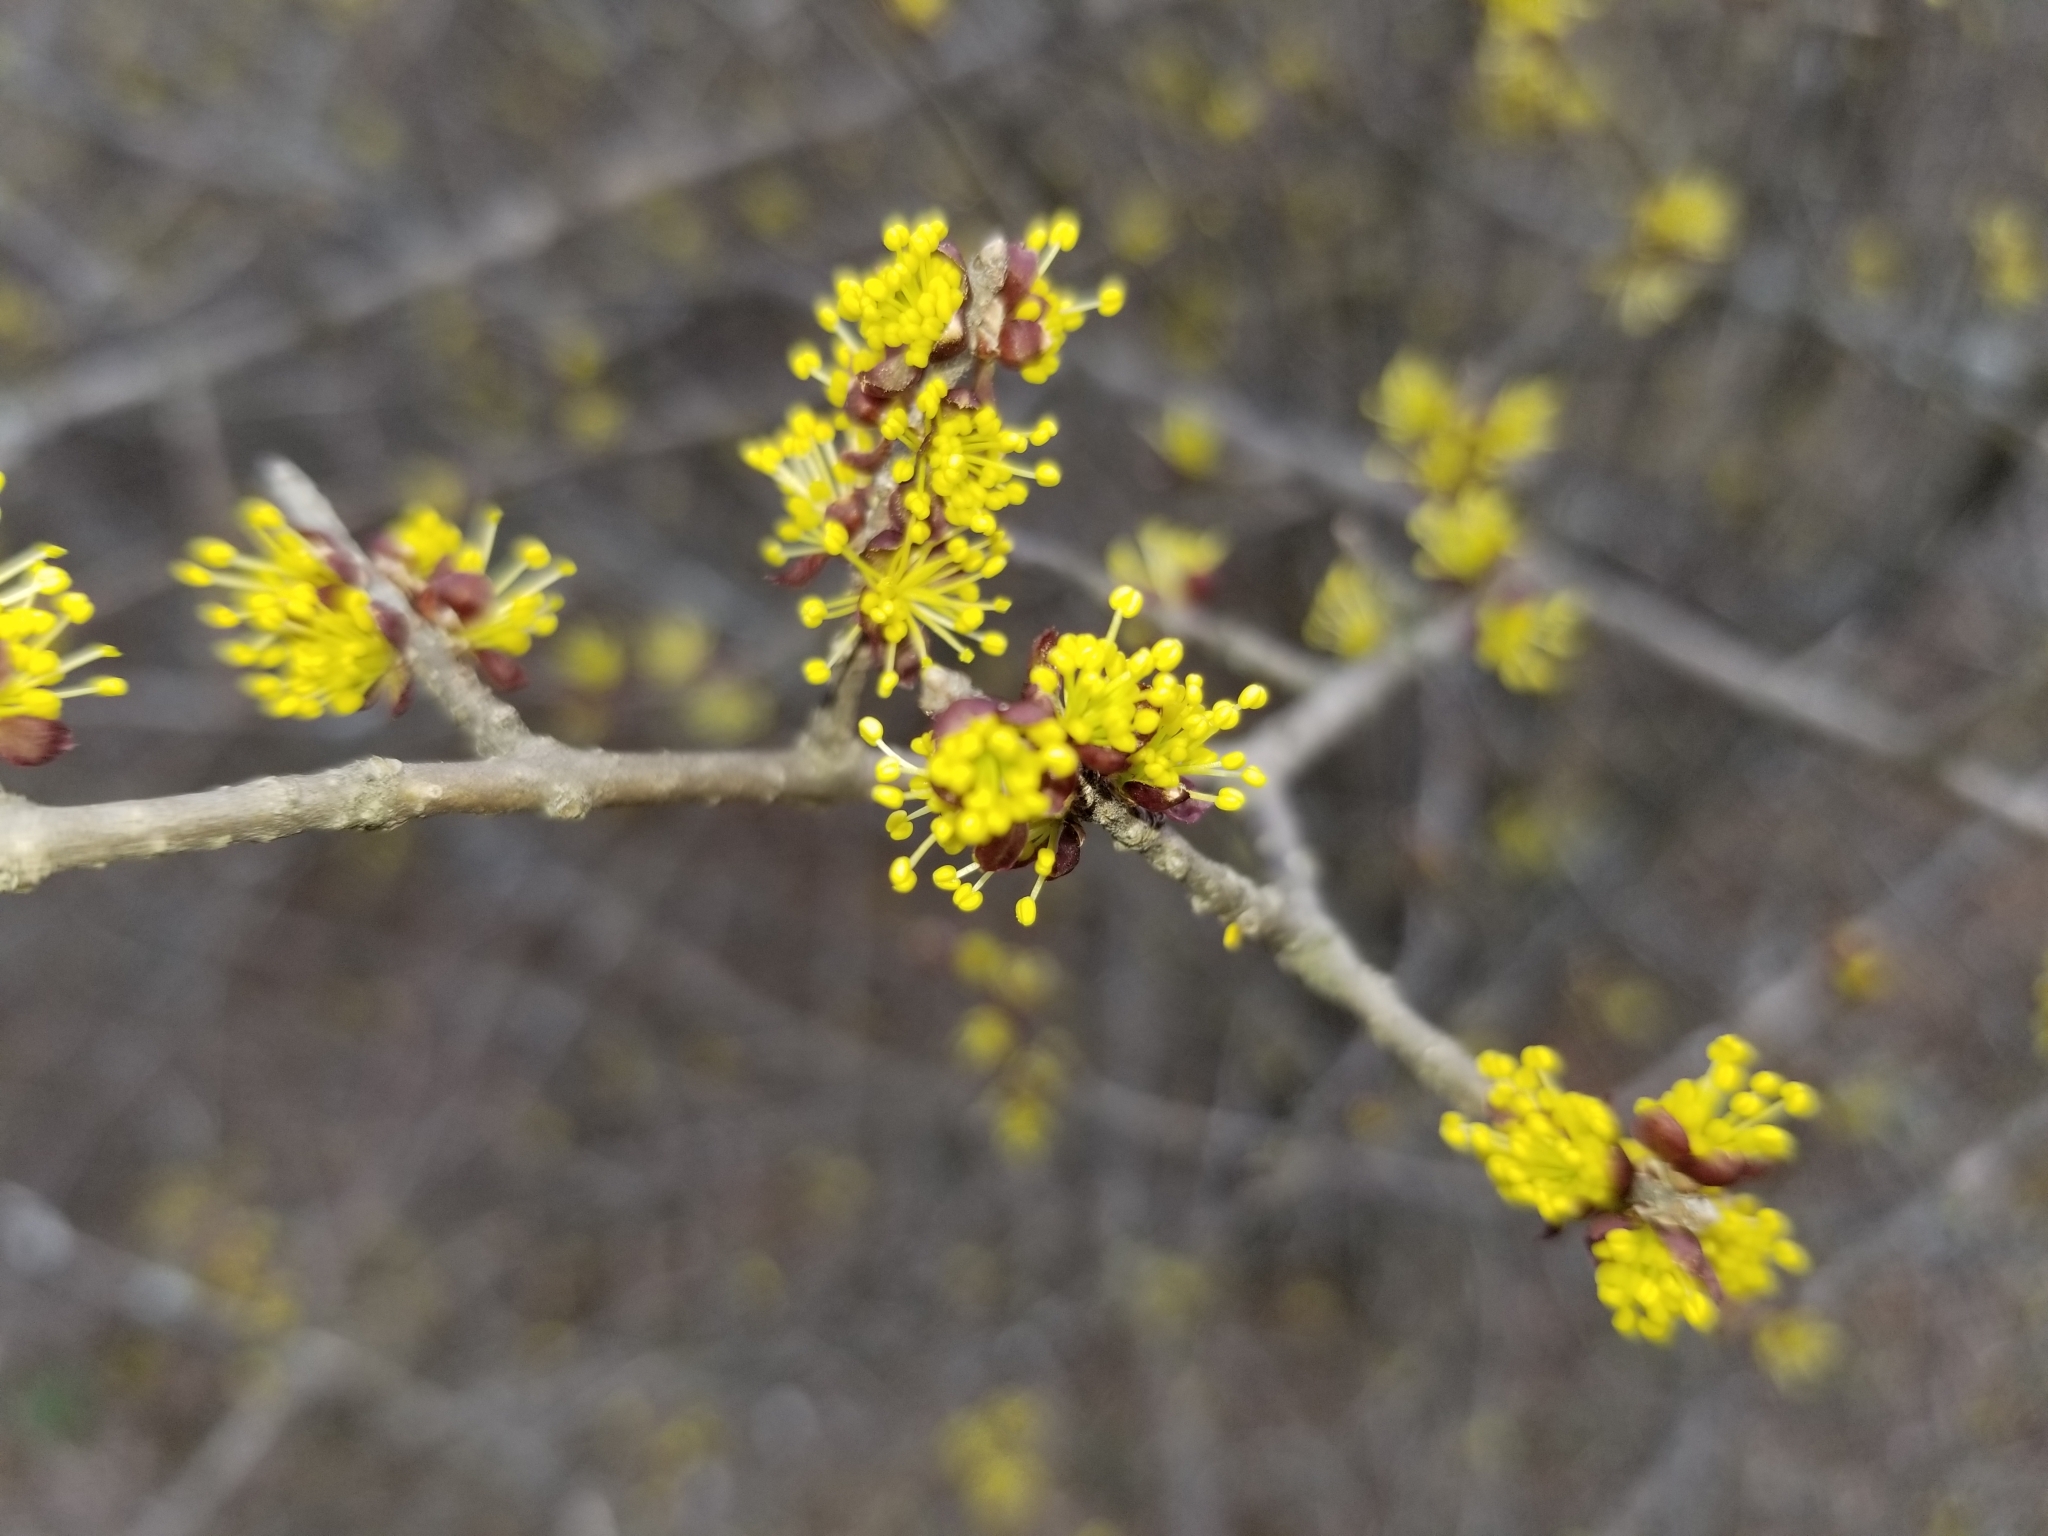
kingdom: Plantae
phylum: Tracheophyta
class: Magnoliopsida
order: Lamiales
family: Oleaceae
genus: Forestiera
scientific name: Forestiera pubescens
